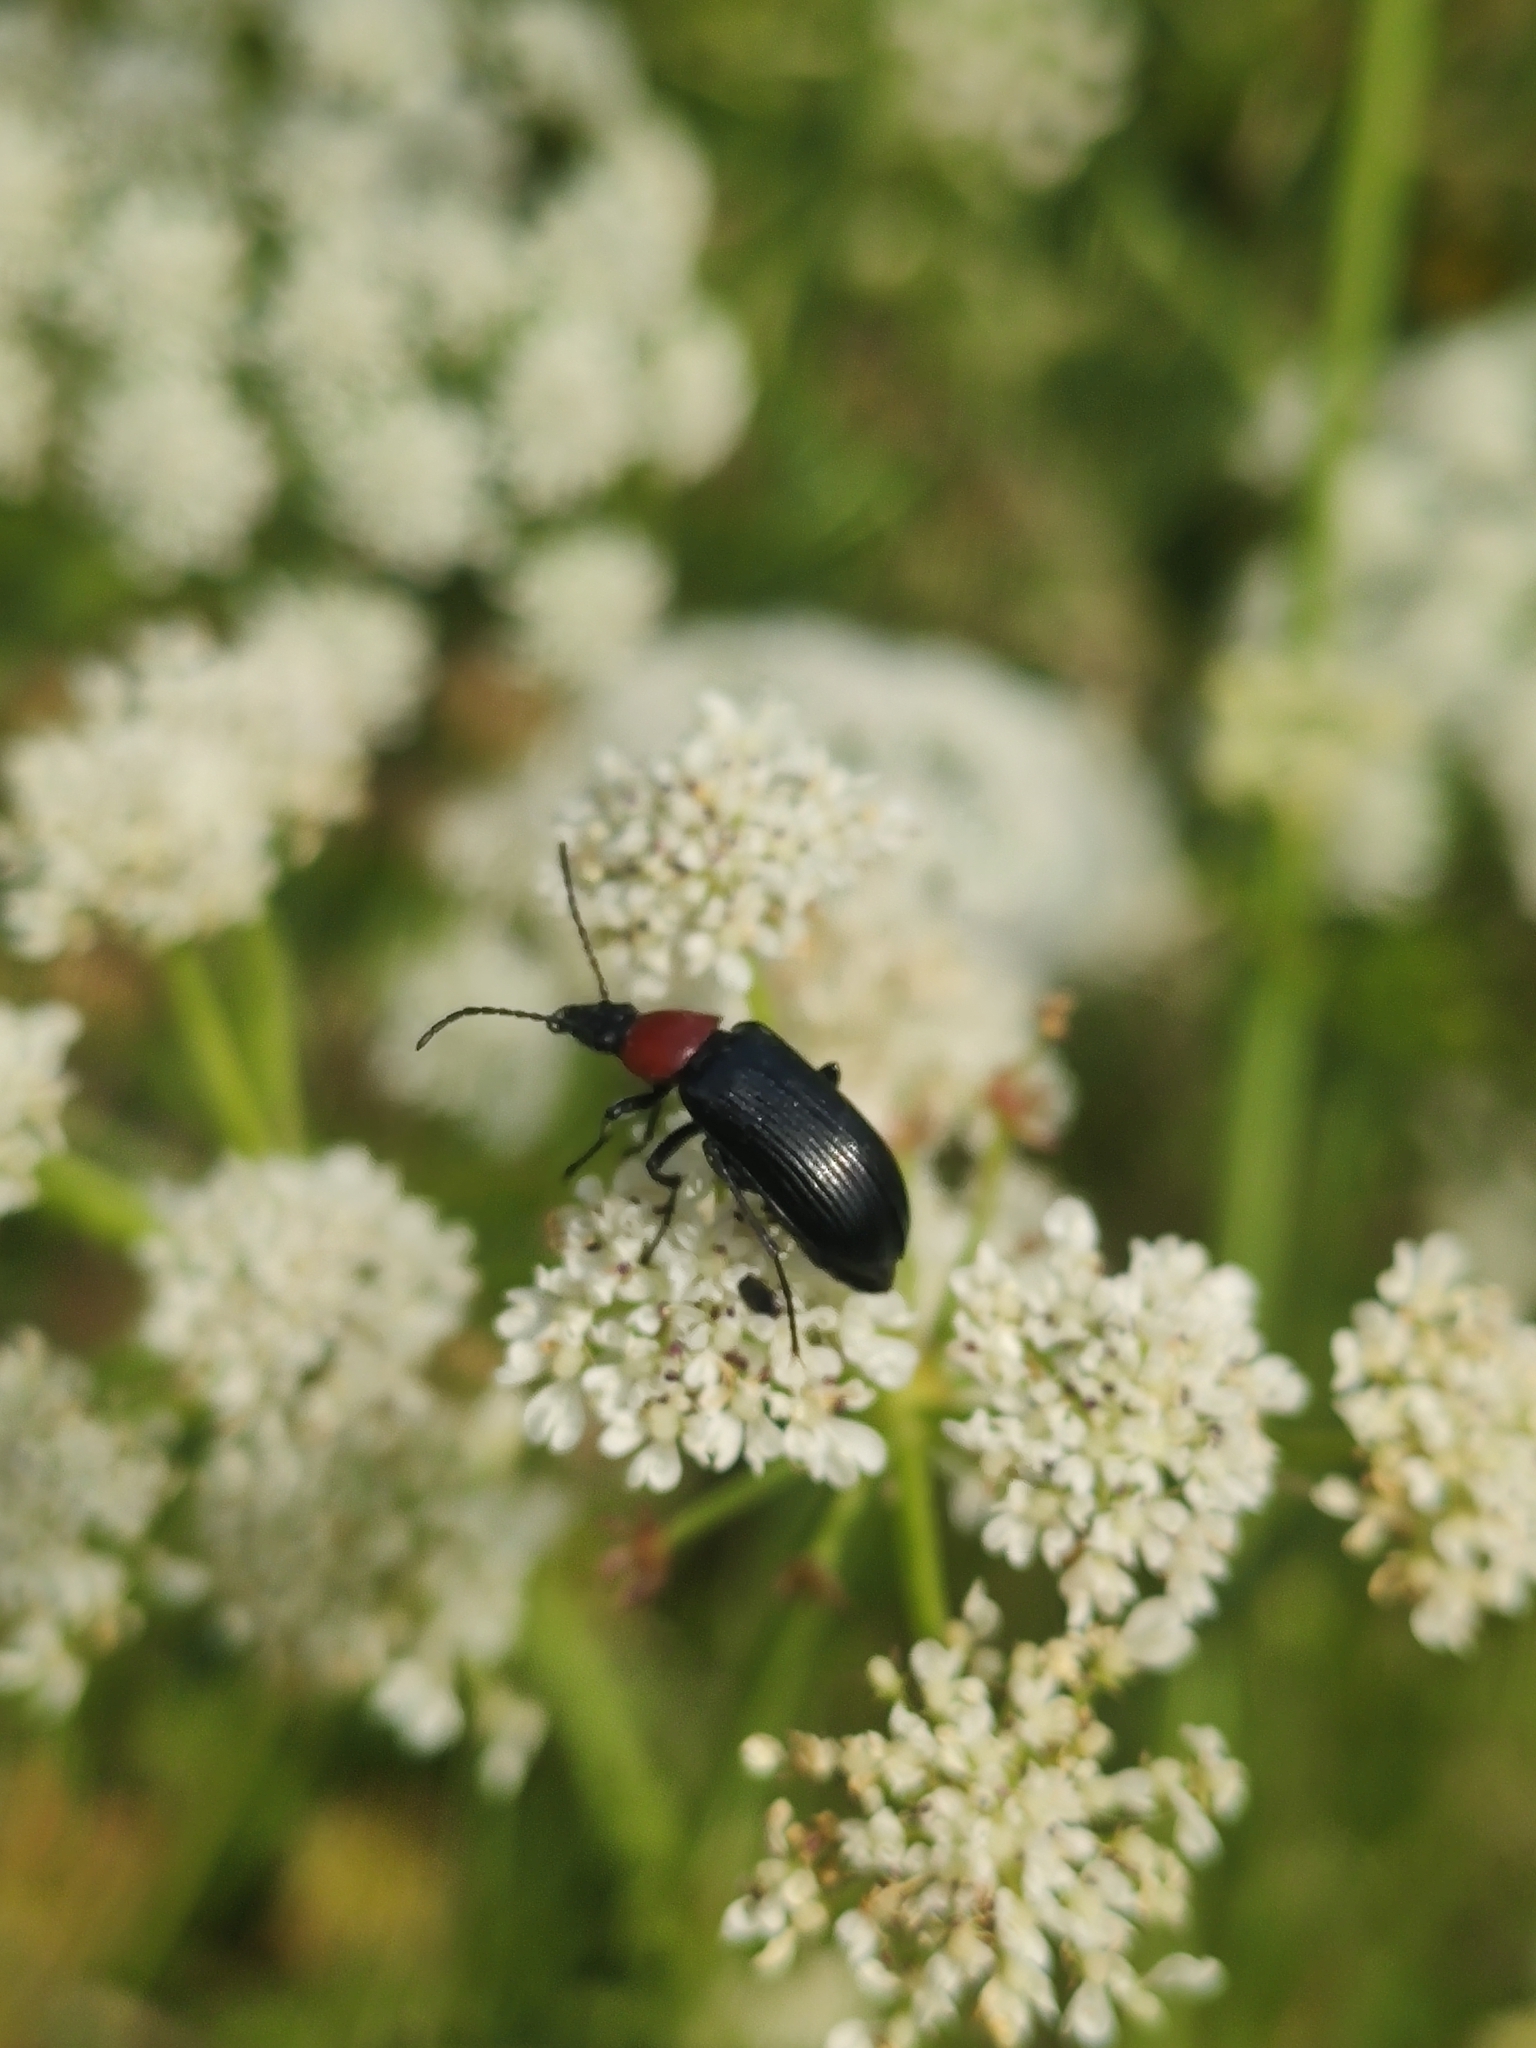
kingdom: Animalia
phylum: Arthropoda
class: Insecta
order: Coleoptera
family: Tenebrionidae
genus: Heliotaurus
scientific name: Heliotaurus ruficollis
